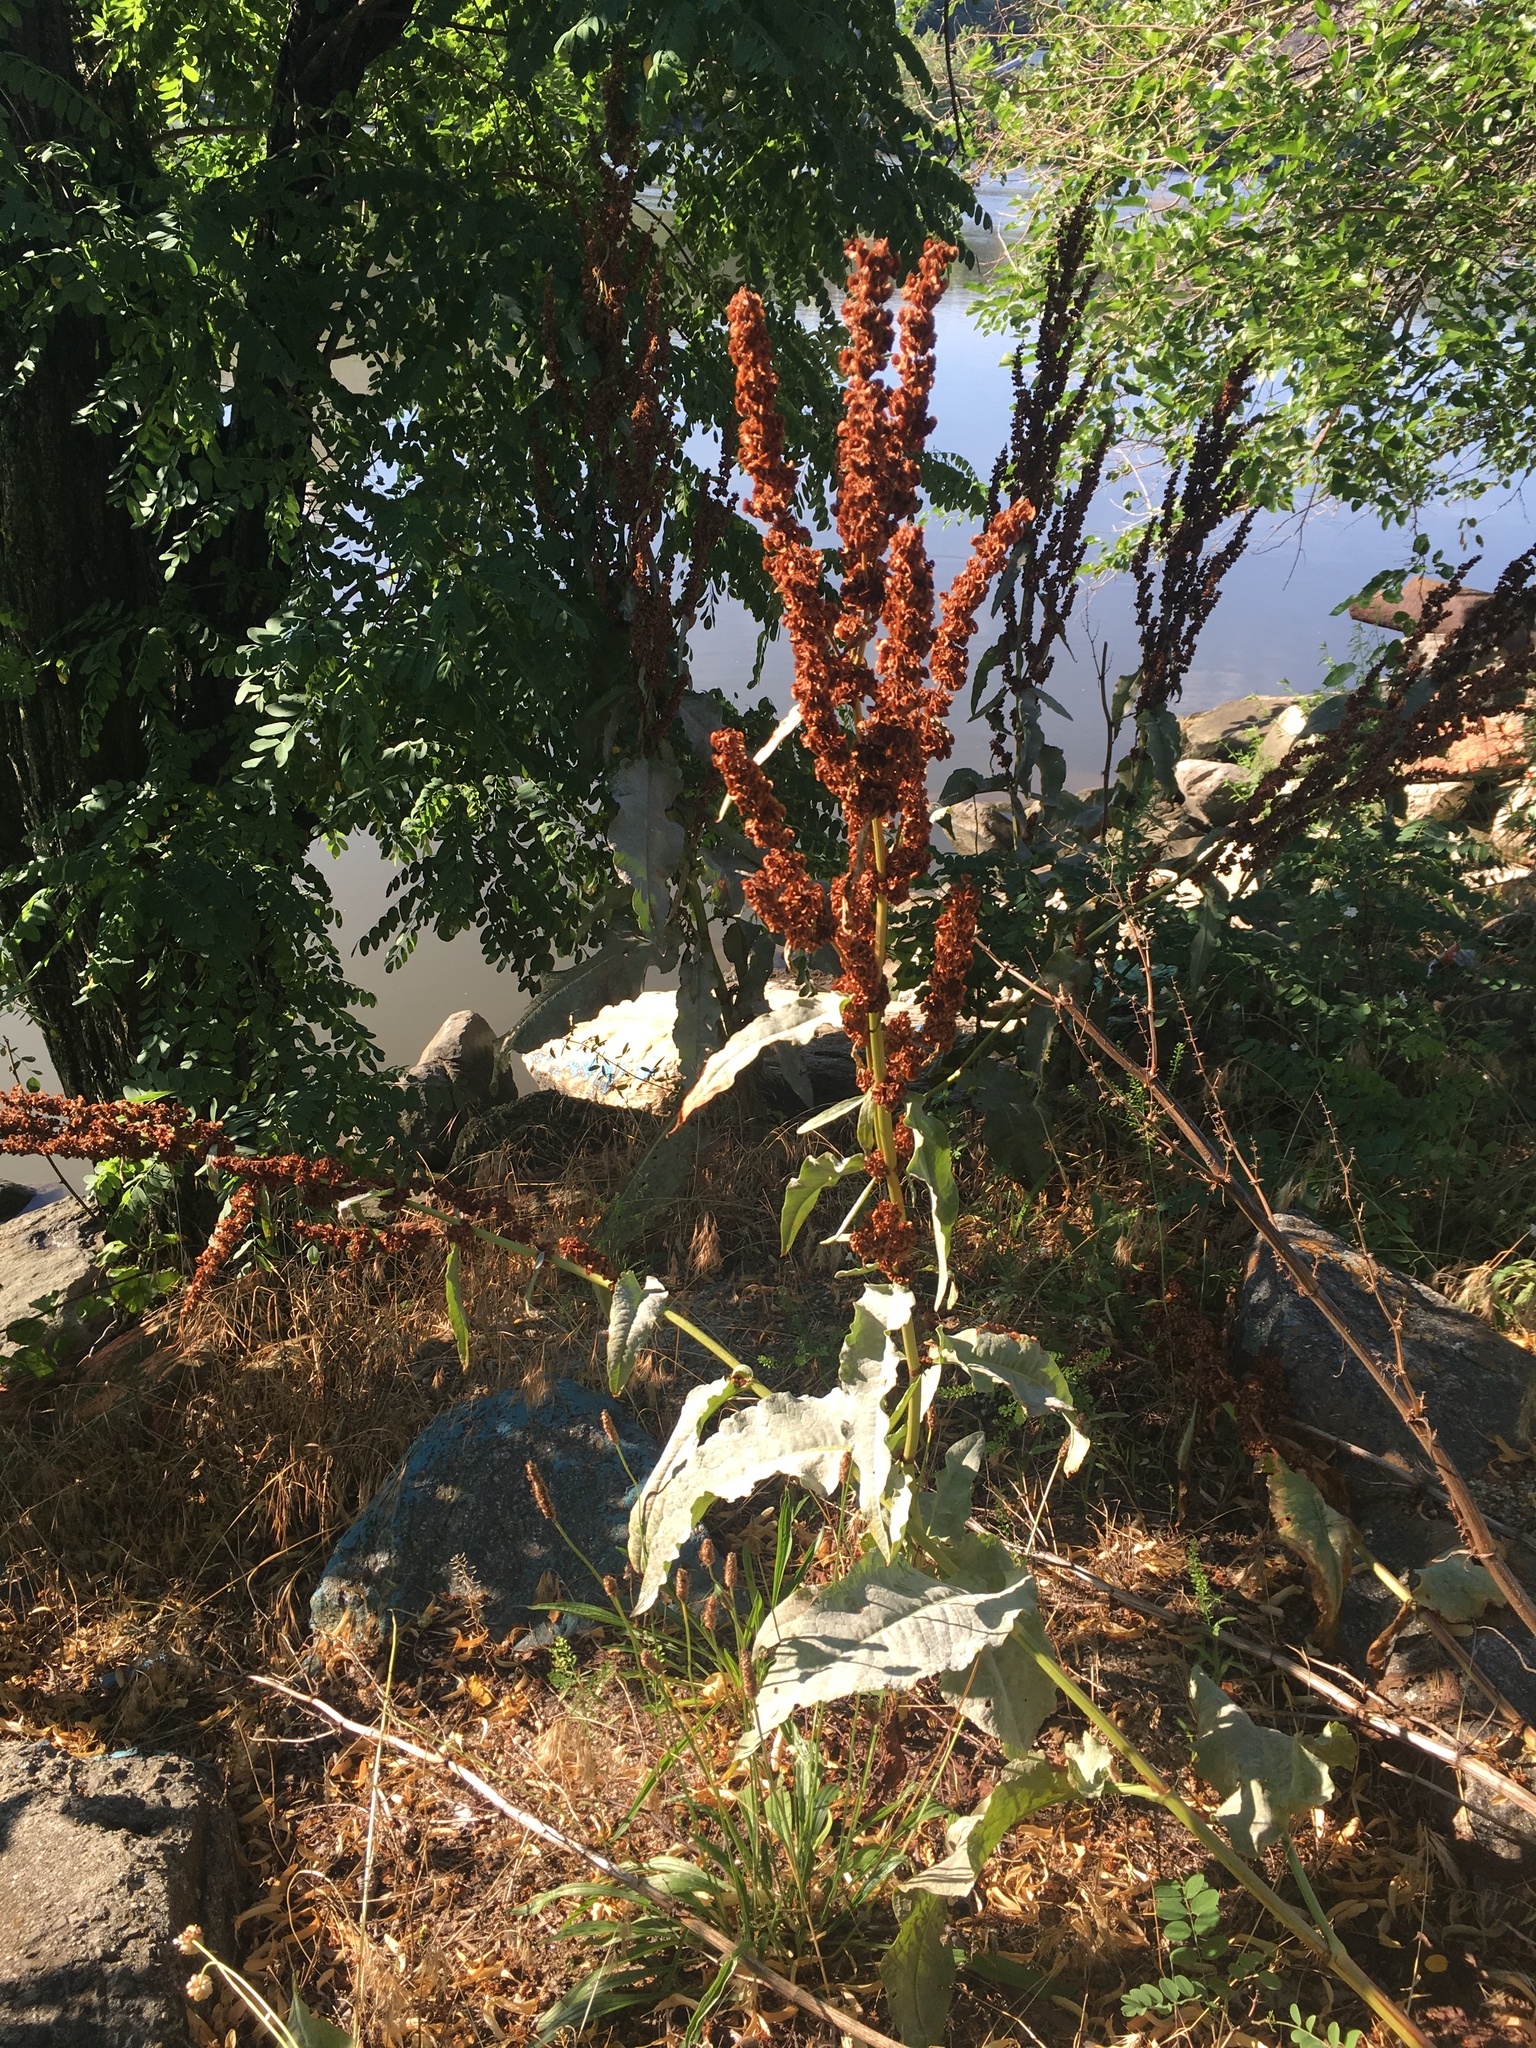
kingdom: Plantae
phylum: Tracheophyta
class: Magnoliopsida
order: Caryophyllales
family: Polygonaceae
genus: Rumex
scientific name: Rumex patientia
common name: Patience dock
